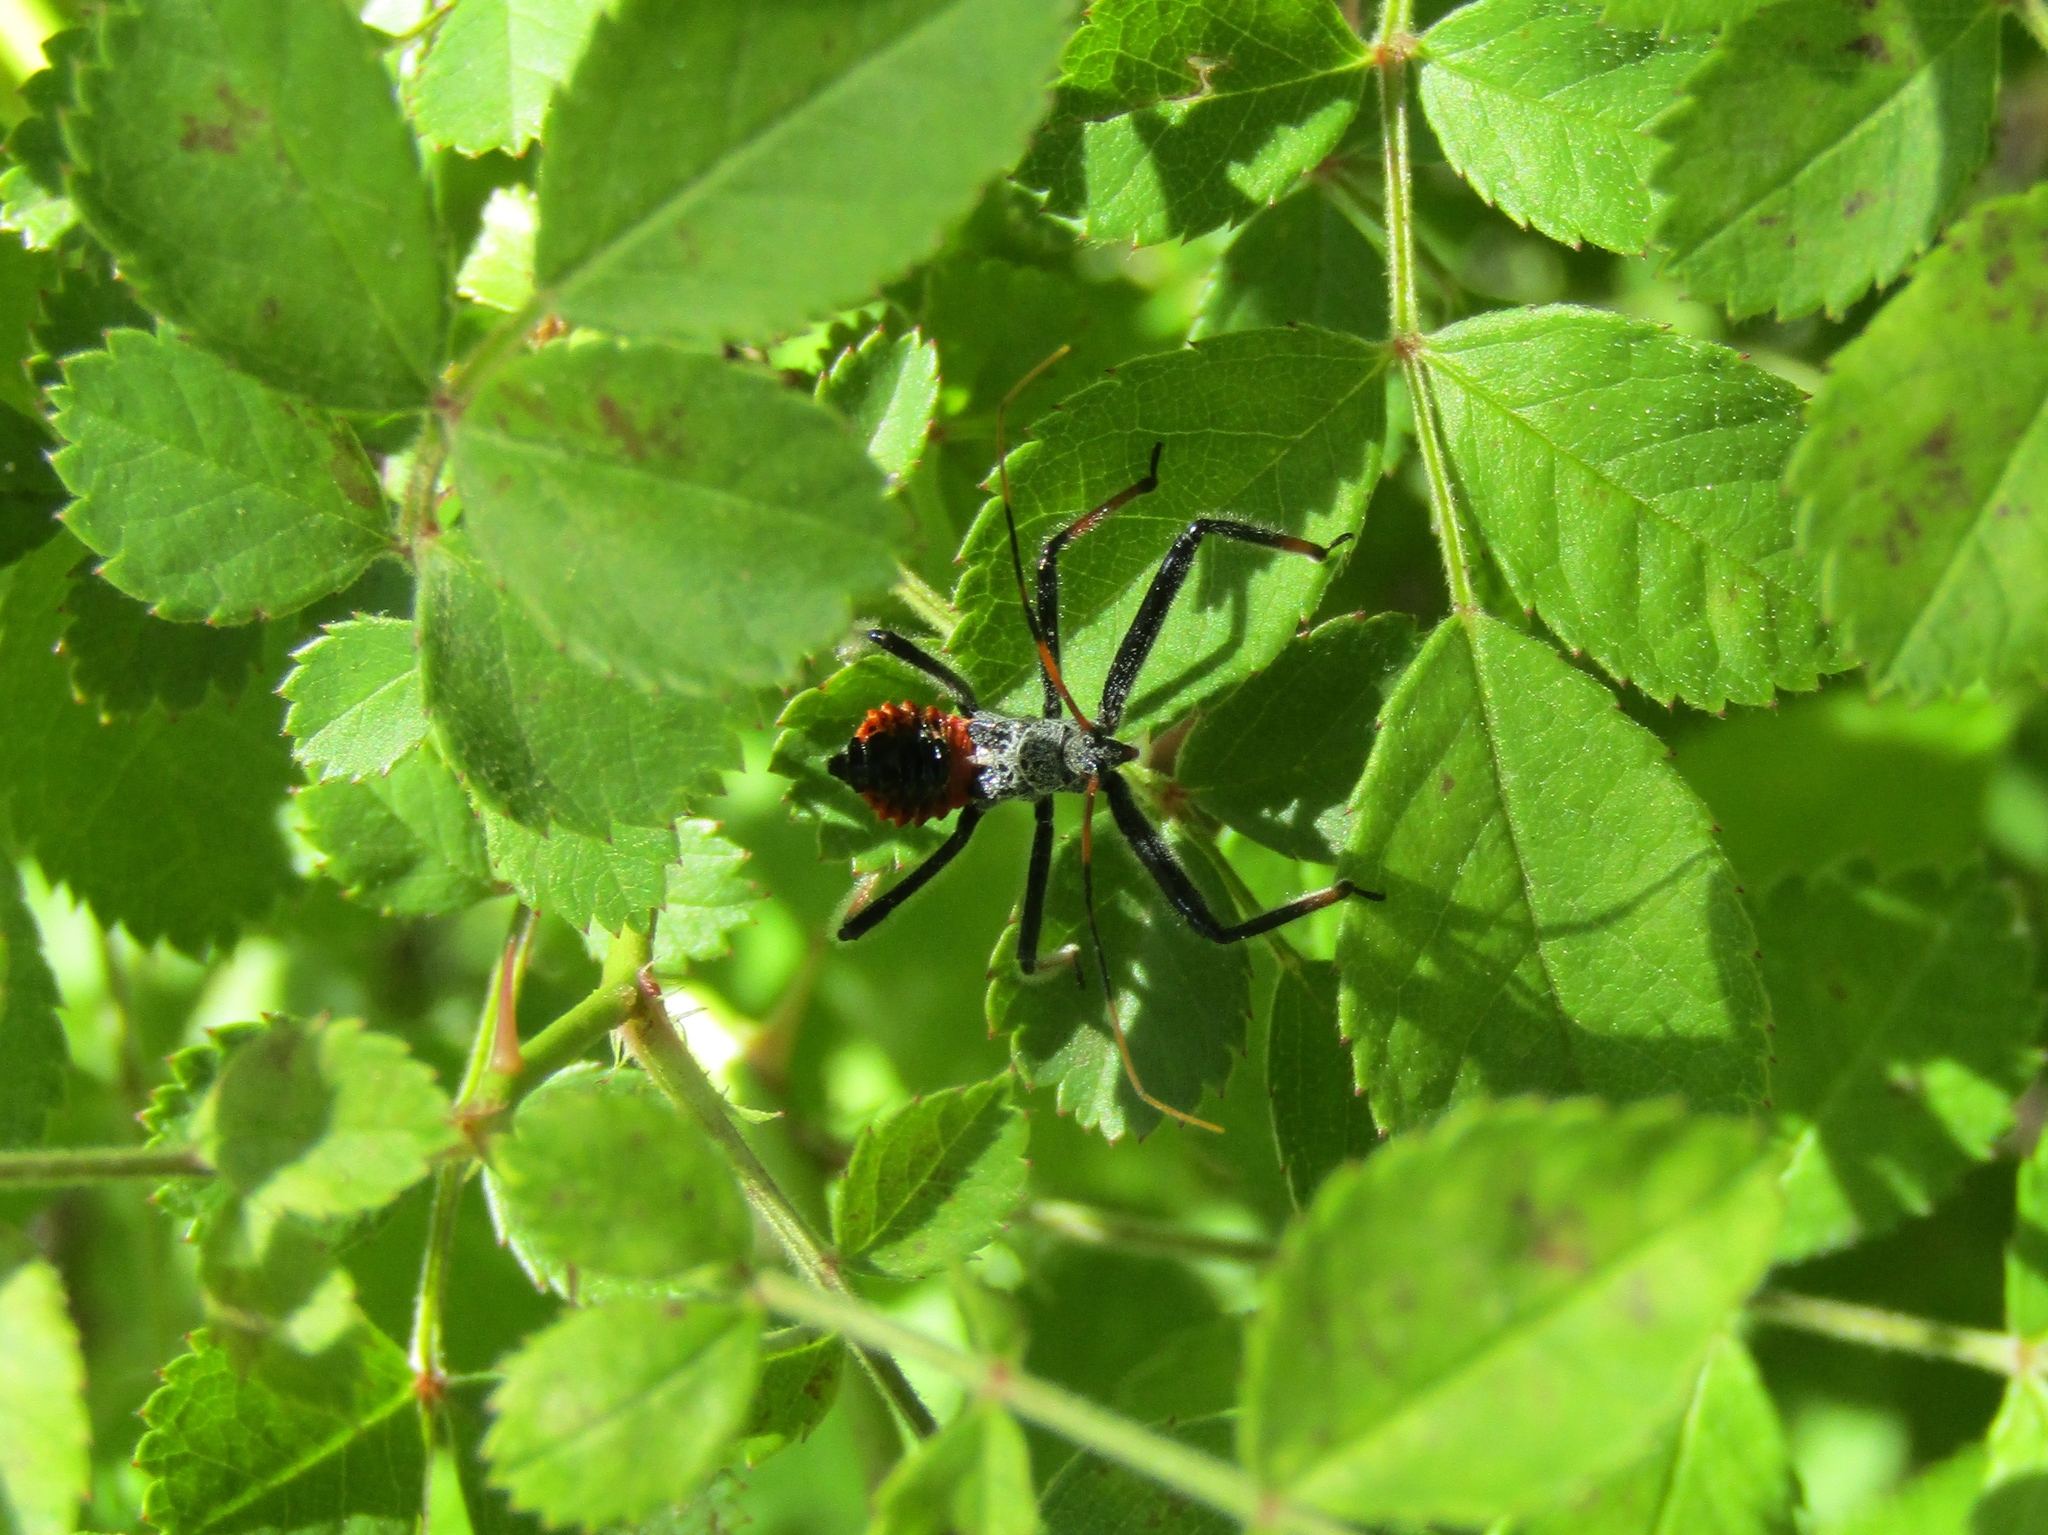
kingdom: Animalia
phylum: Arthropoda
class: Insecta
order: Hemiptera
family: Reduviidae
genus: Arilus
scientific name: Arilus cristatus
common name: North american wheel bug
